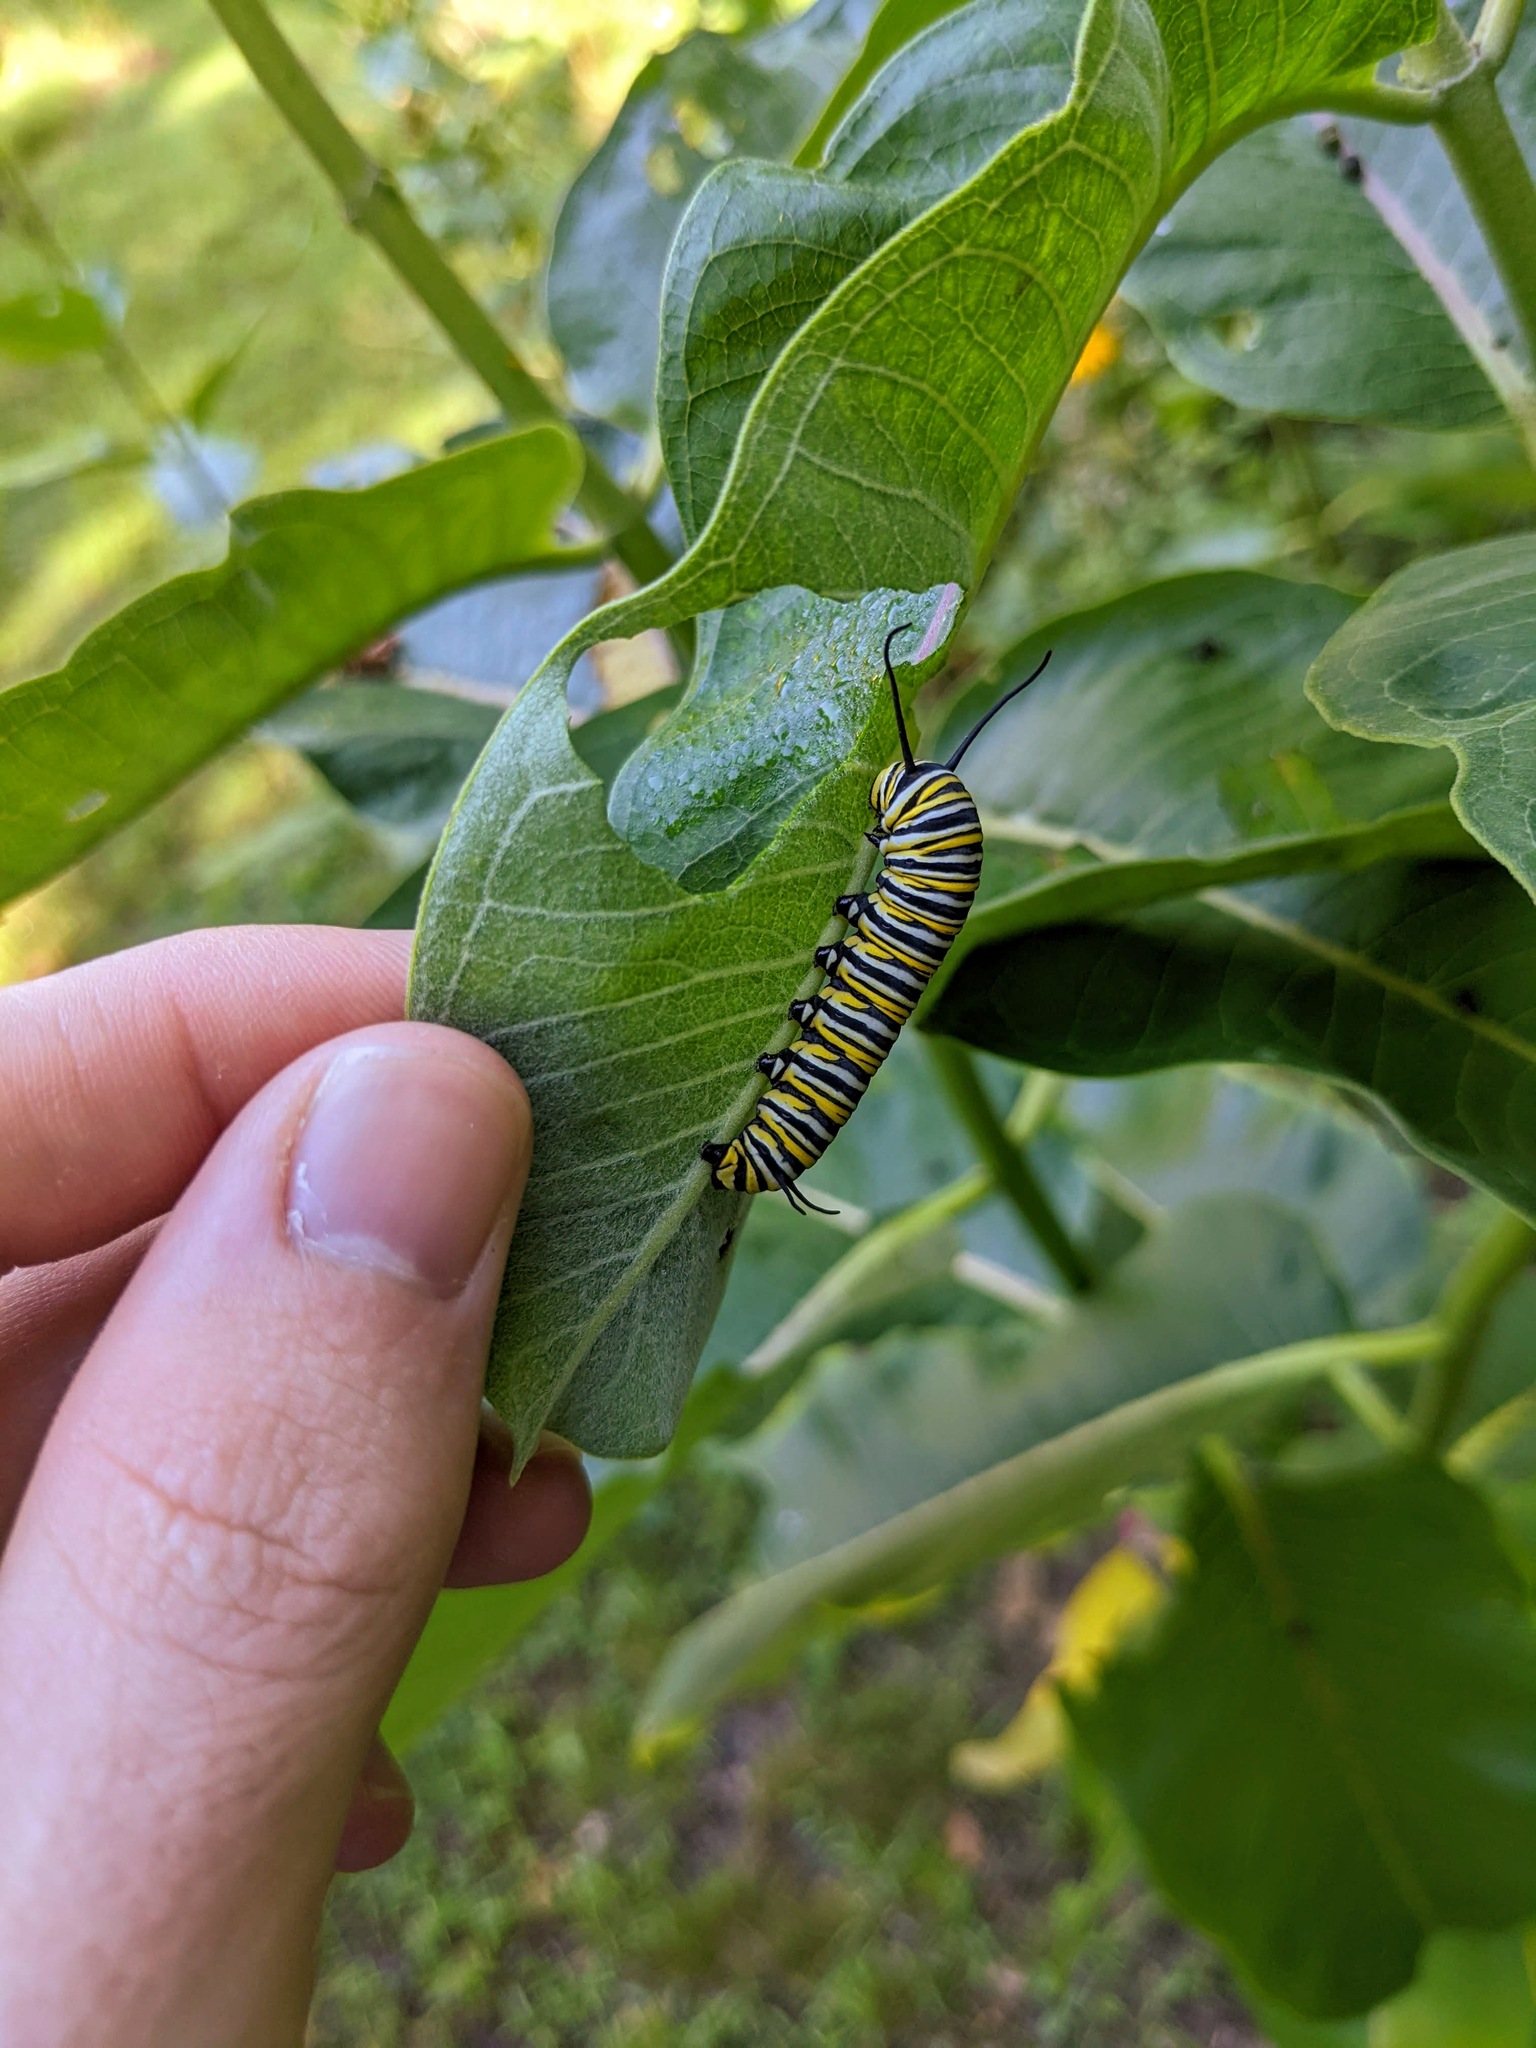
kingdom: Animalia
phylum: Arthropoda
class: Insecta
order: Lepidoptera
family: Nymphalidae
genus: Danaus
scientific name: Danaus plexippus
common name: Monarch
